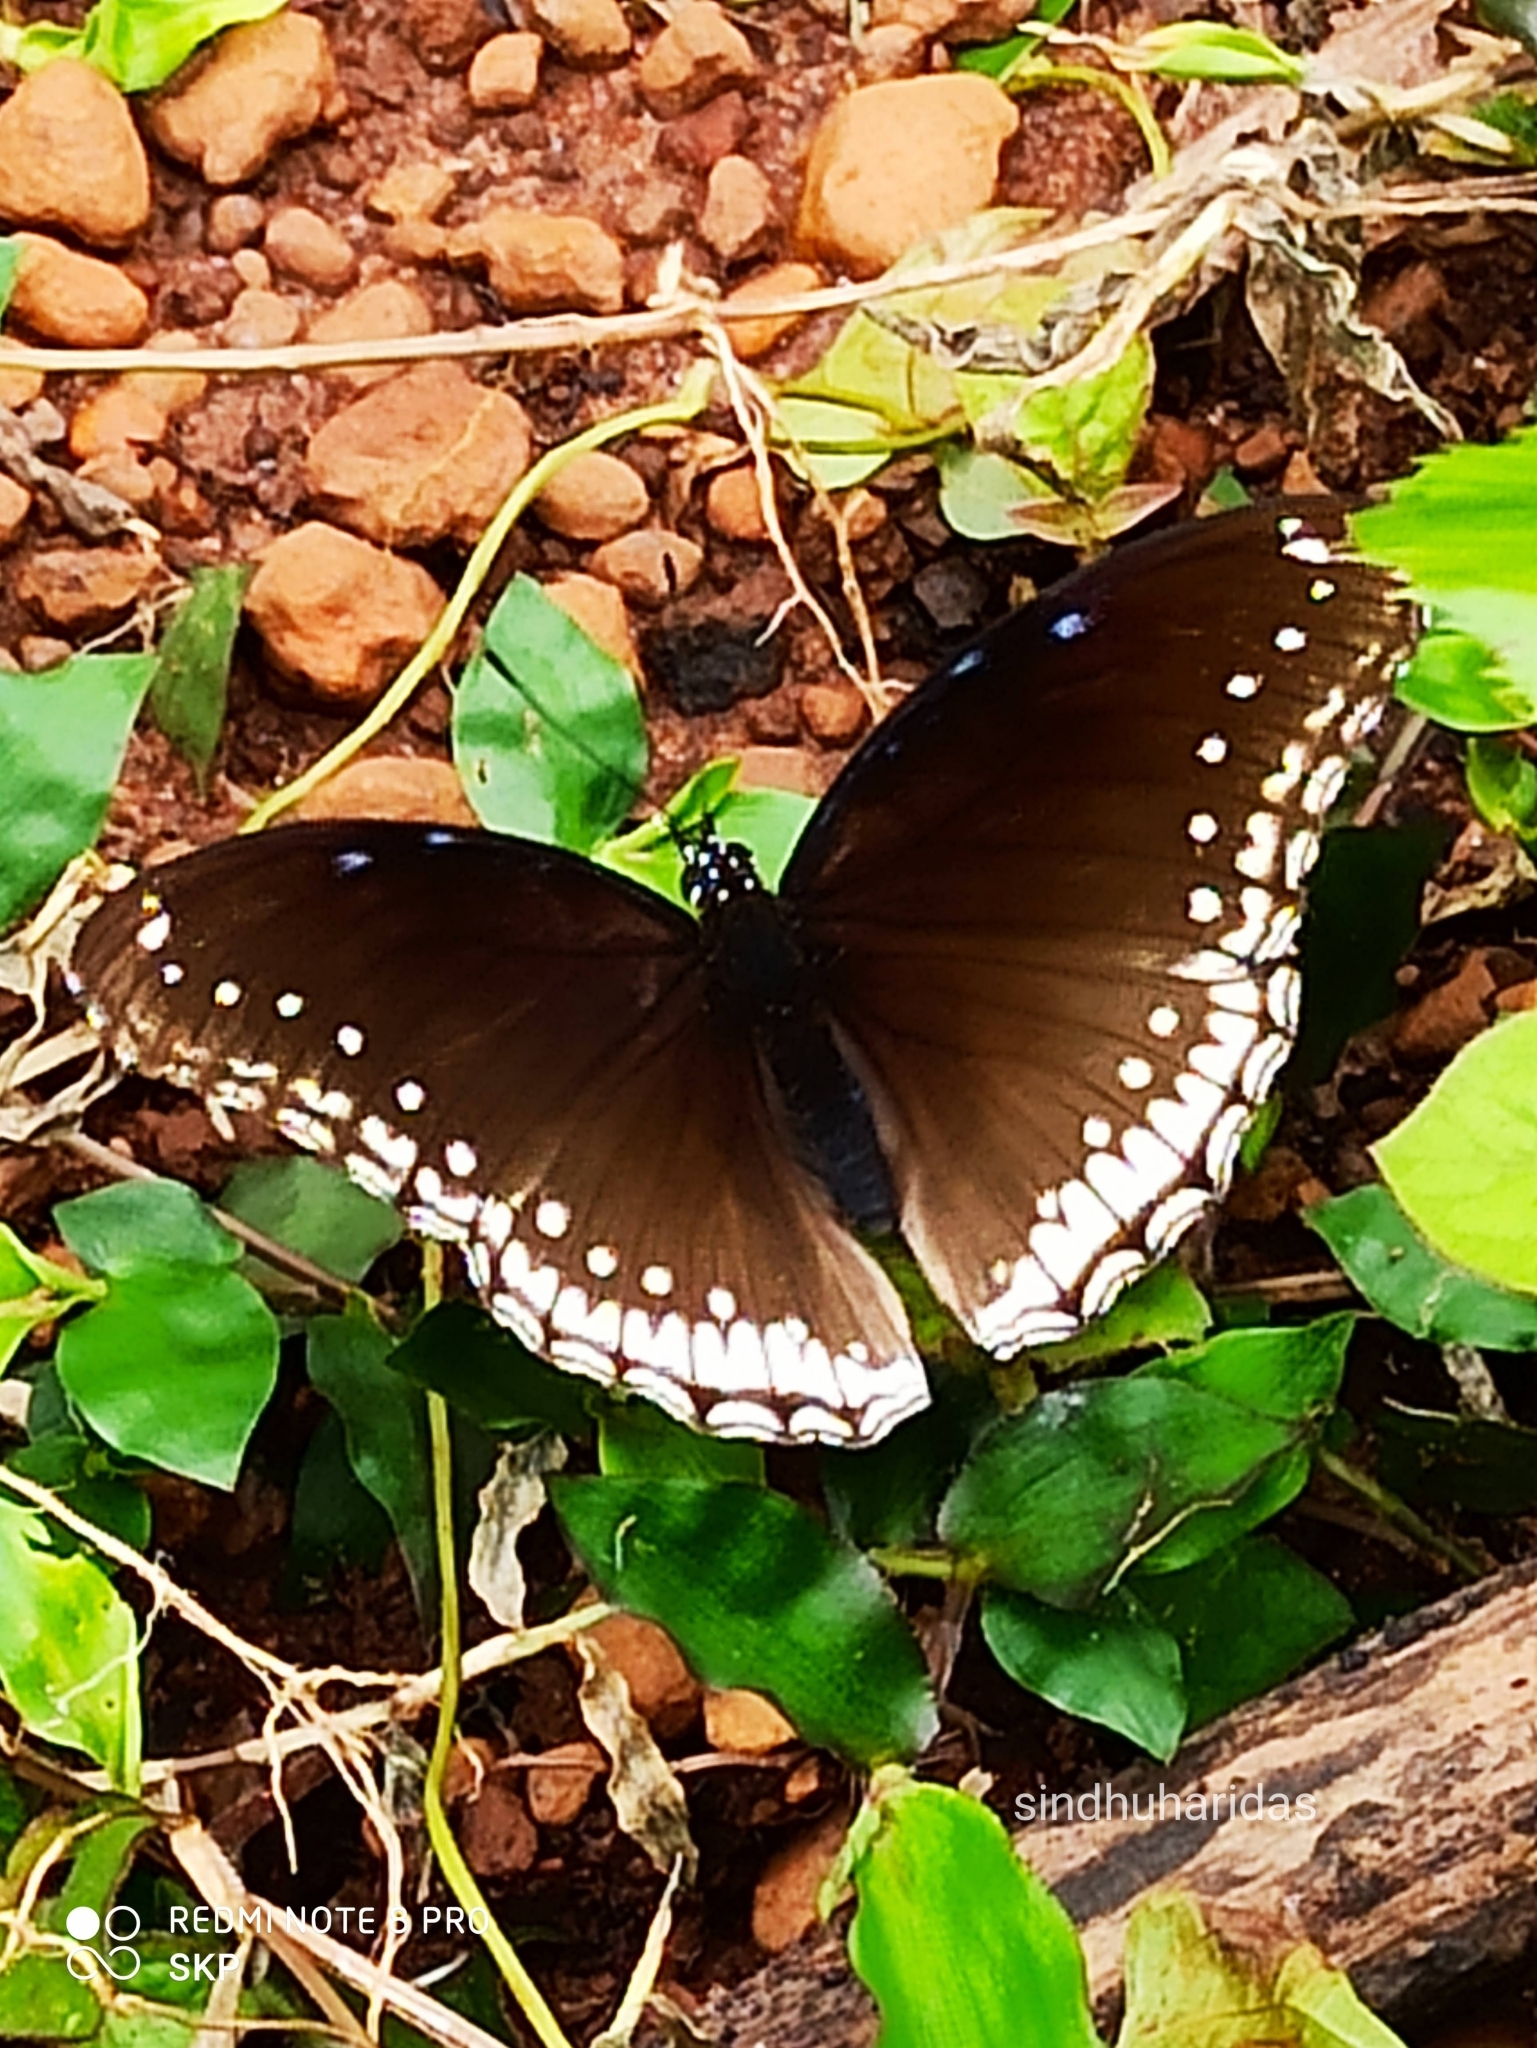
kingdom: Animalia
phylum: Arthropoda
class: Insecta
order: Lepidoptera
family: Nymphalidae
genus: Hypolimnas
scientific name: Hypolimnas bolina
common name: Great eggfly
